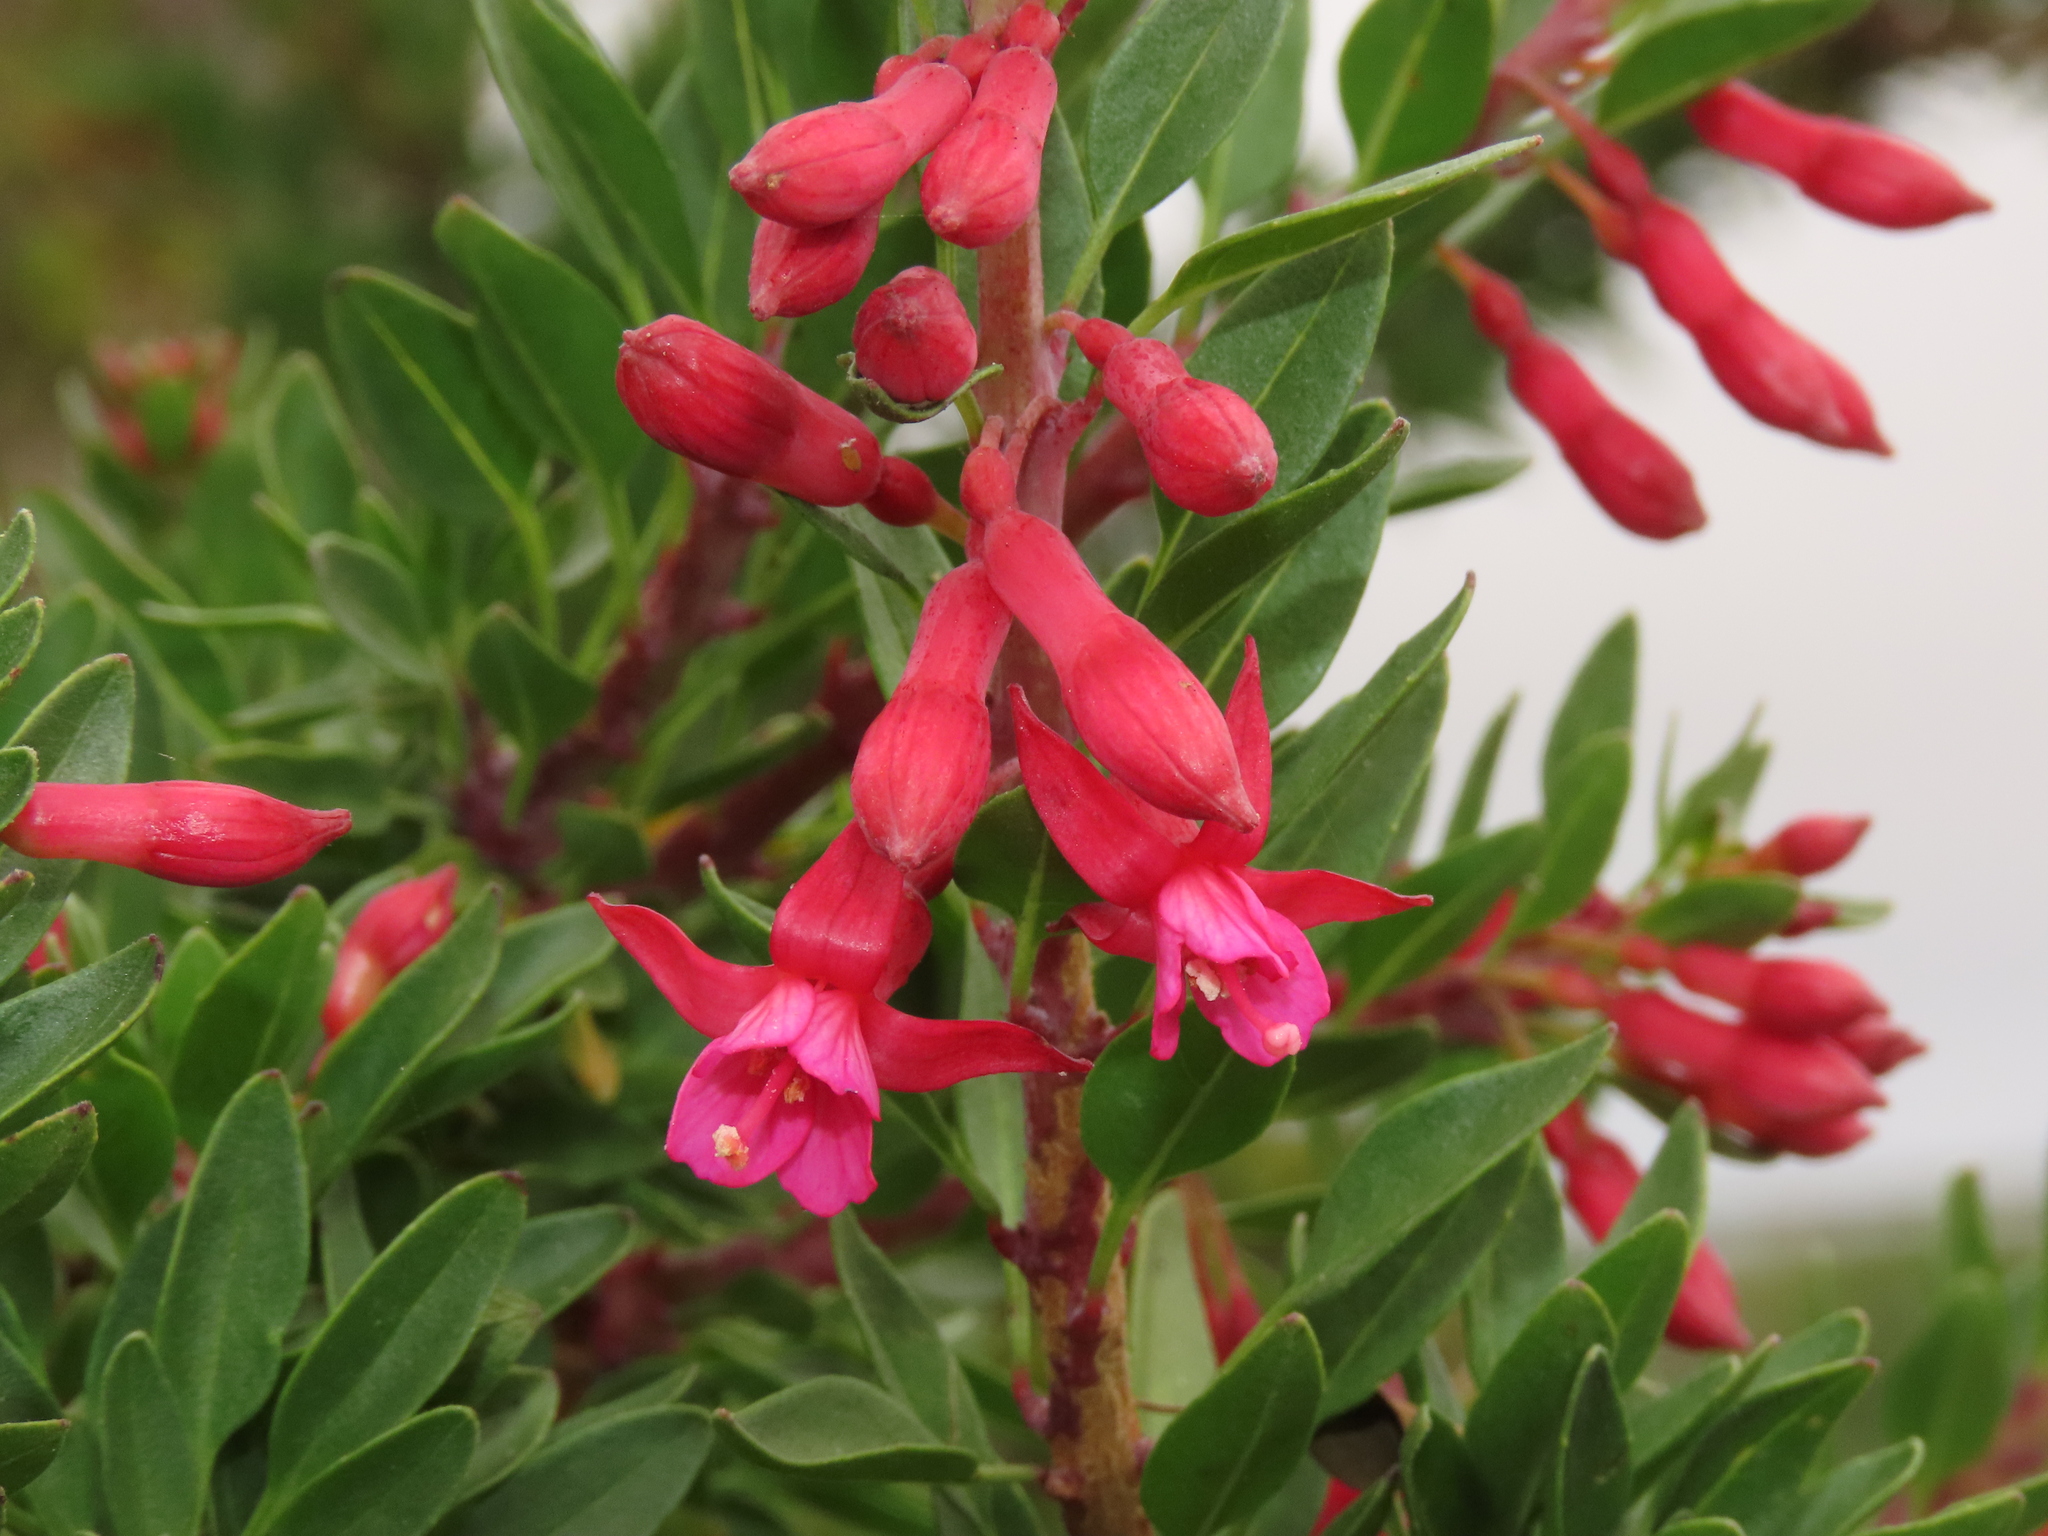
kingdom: Plantae
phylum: Tracheophyta
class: Magnoliopsida
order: Myrtales
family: Onagraceae
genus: Fuchsia
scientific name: Fuchsia lycioides
